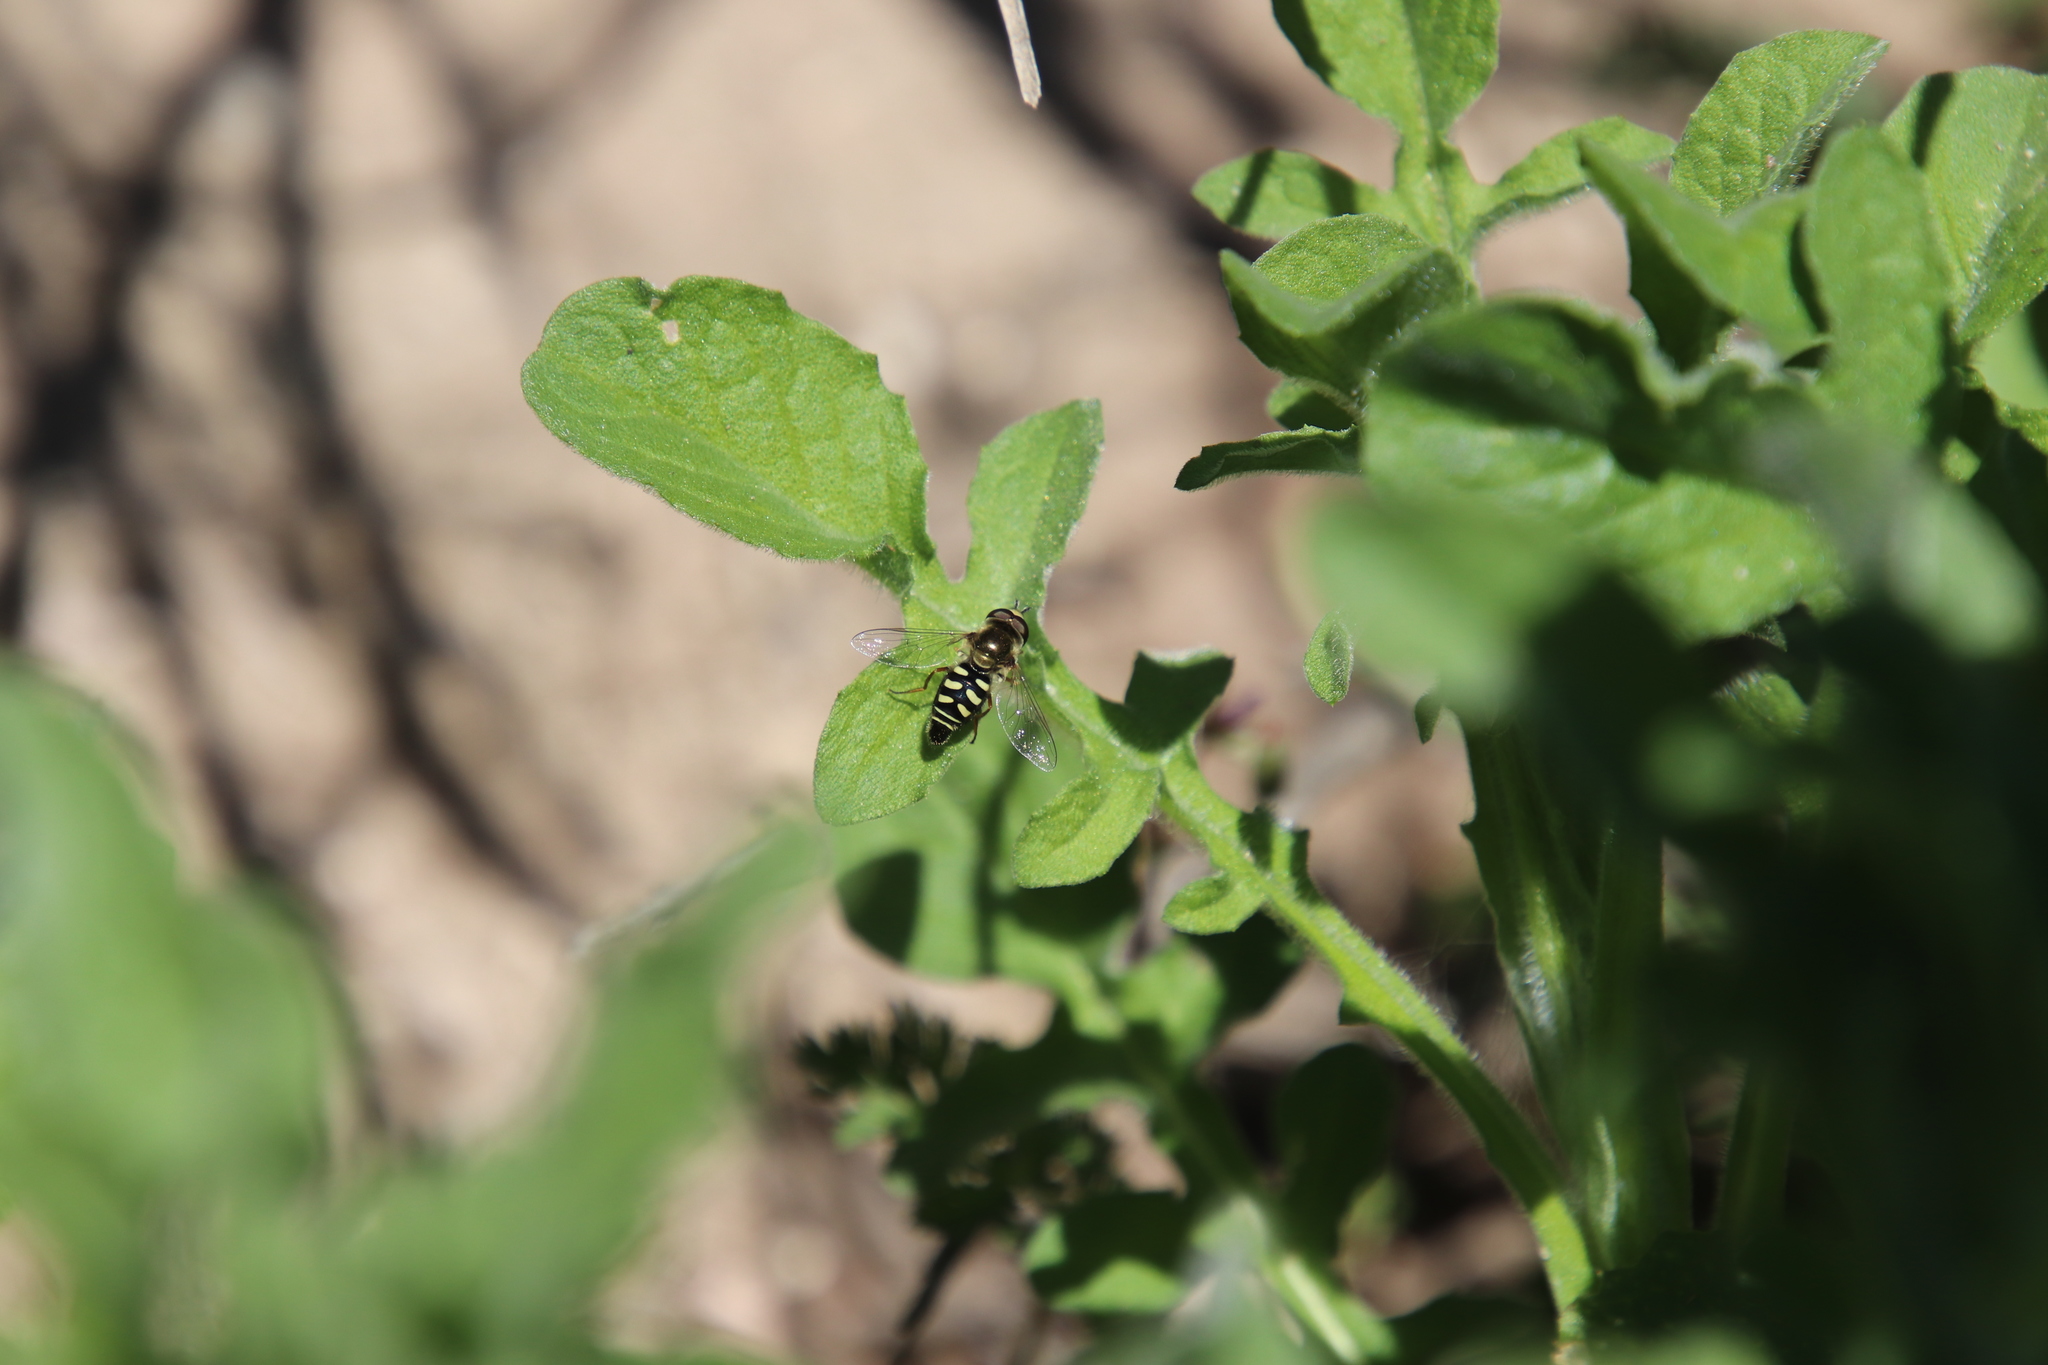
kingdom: Animalia
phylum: Arthropoda
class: Insecta
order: Diptera
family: Syrphidae
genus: Eupeodes
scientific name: Eupeodes volucris
